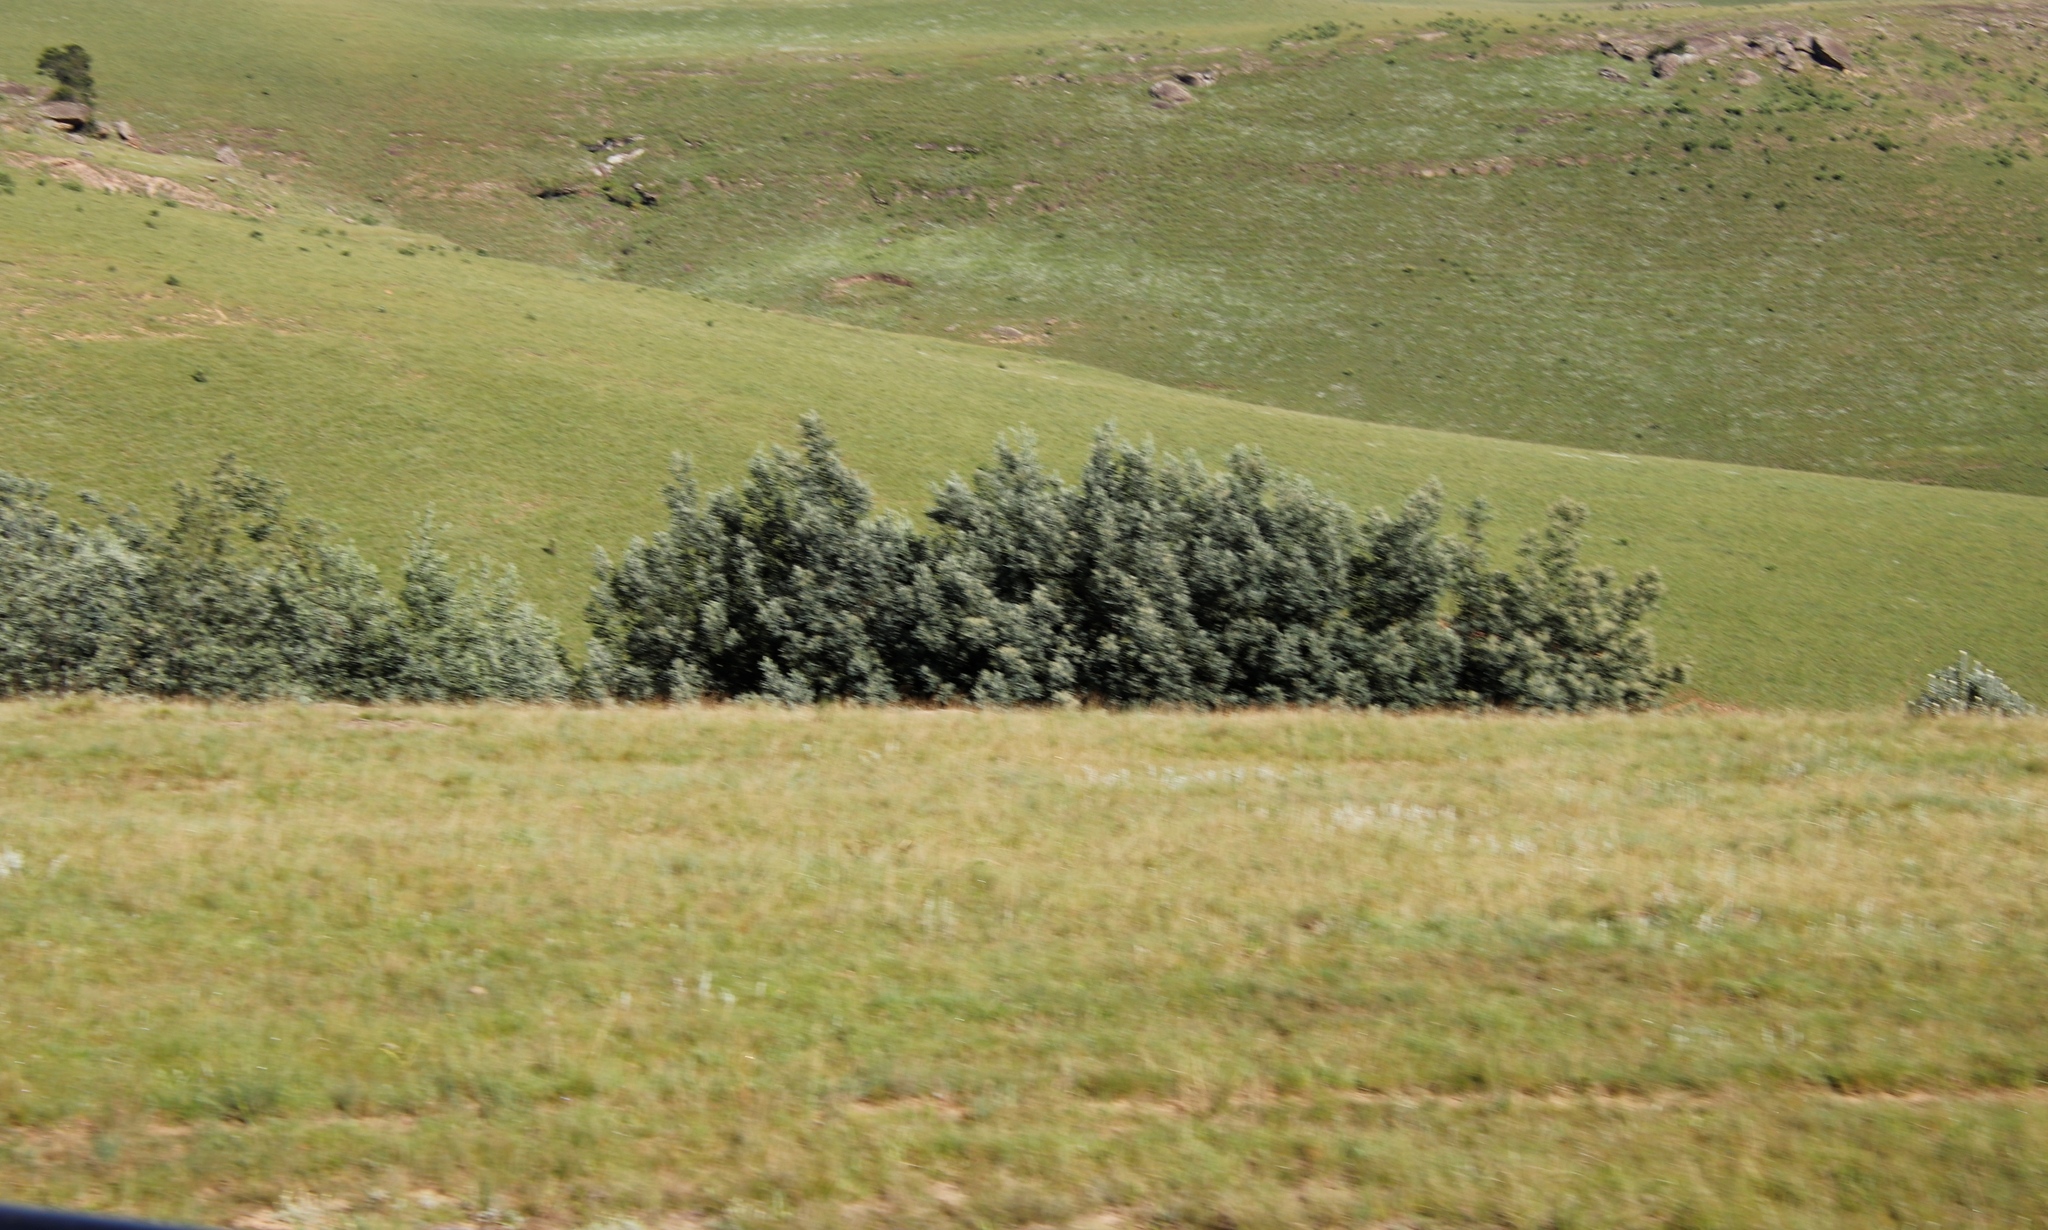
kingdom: Plantae
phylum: Tracheophyta
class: Magnoliopsida
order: Fabales
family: Fabaceae
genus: Acacia
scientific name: Acacia dealbata
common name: Silver wattle
